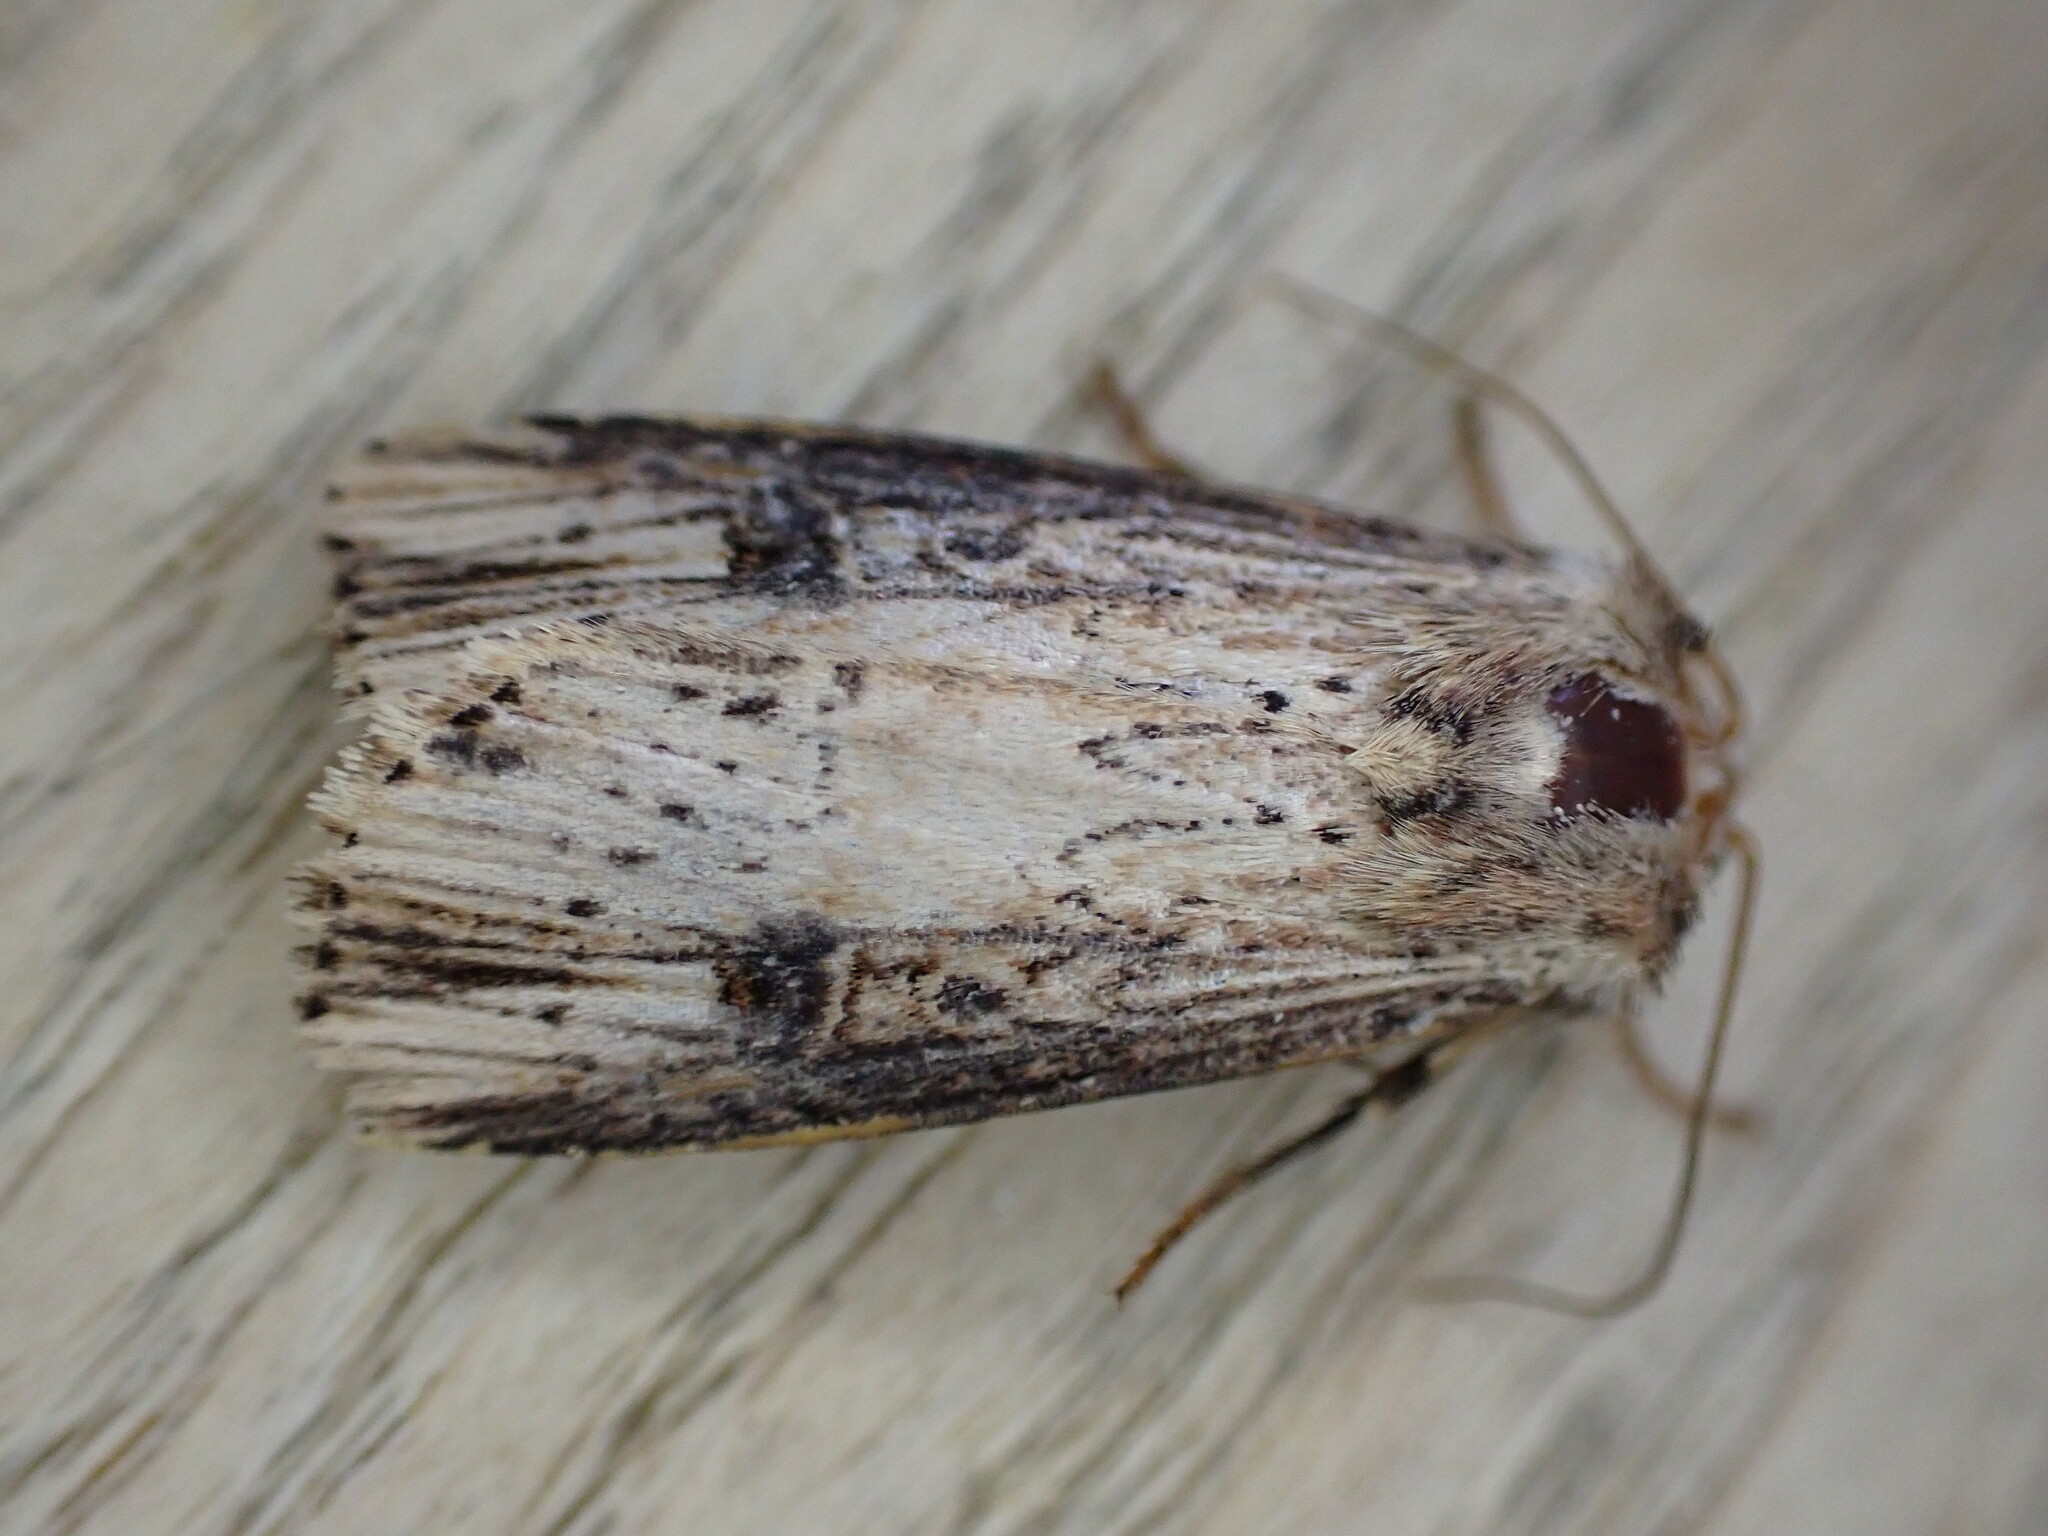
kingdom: Animalia
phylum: Arthropoda
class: Insecta
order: Lepidoptera
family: Noctuidae
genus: Axylia
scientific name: Axylia putris
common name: Flame
